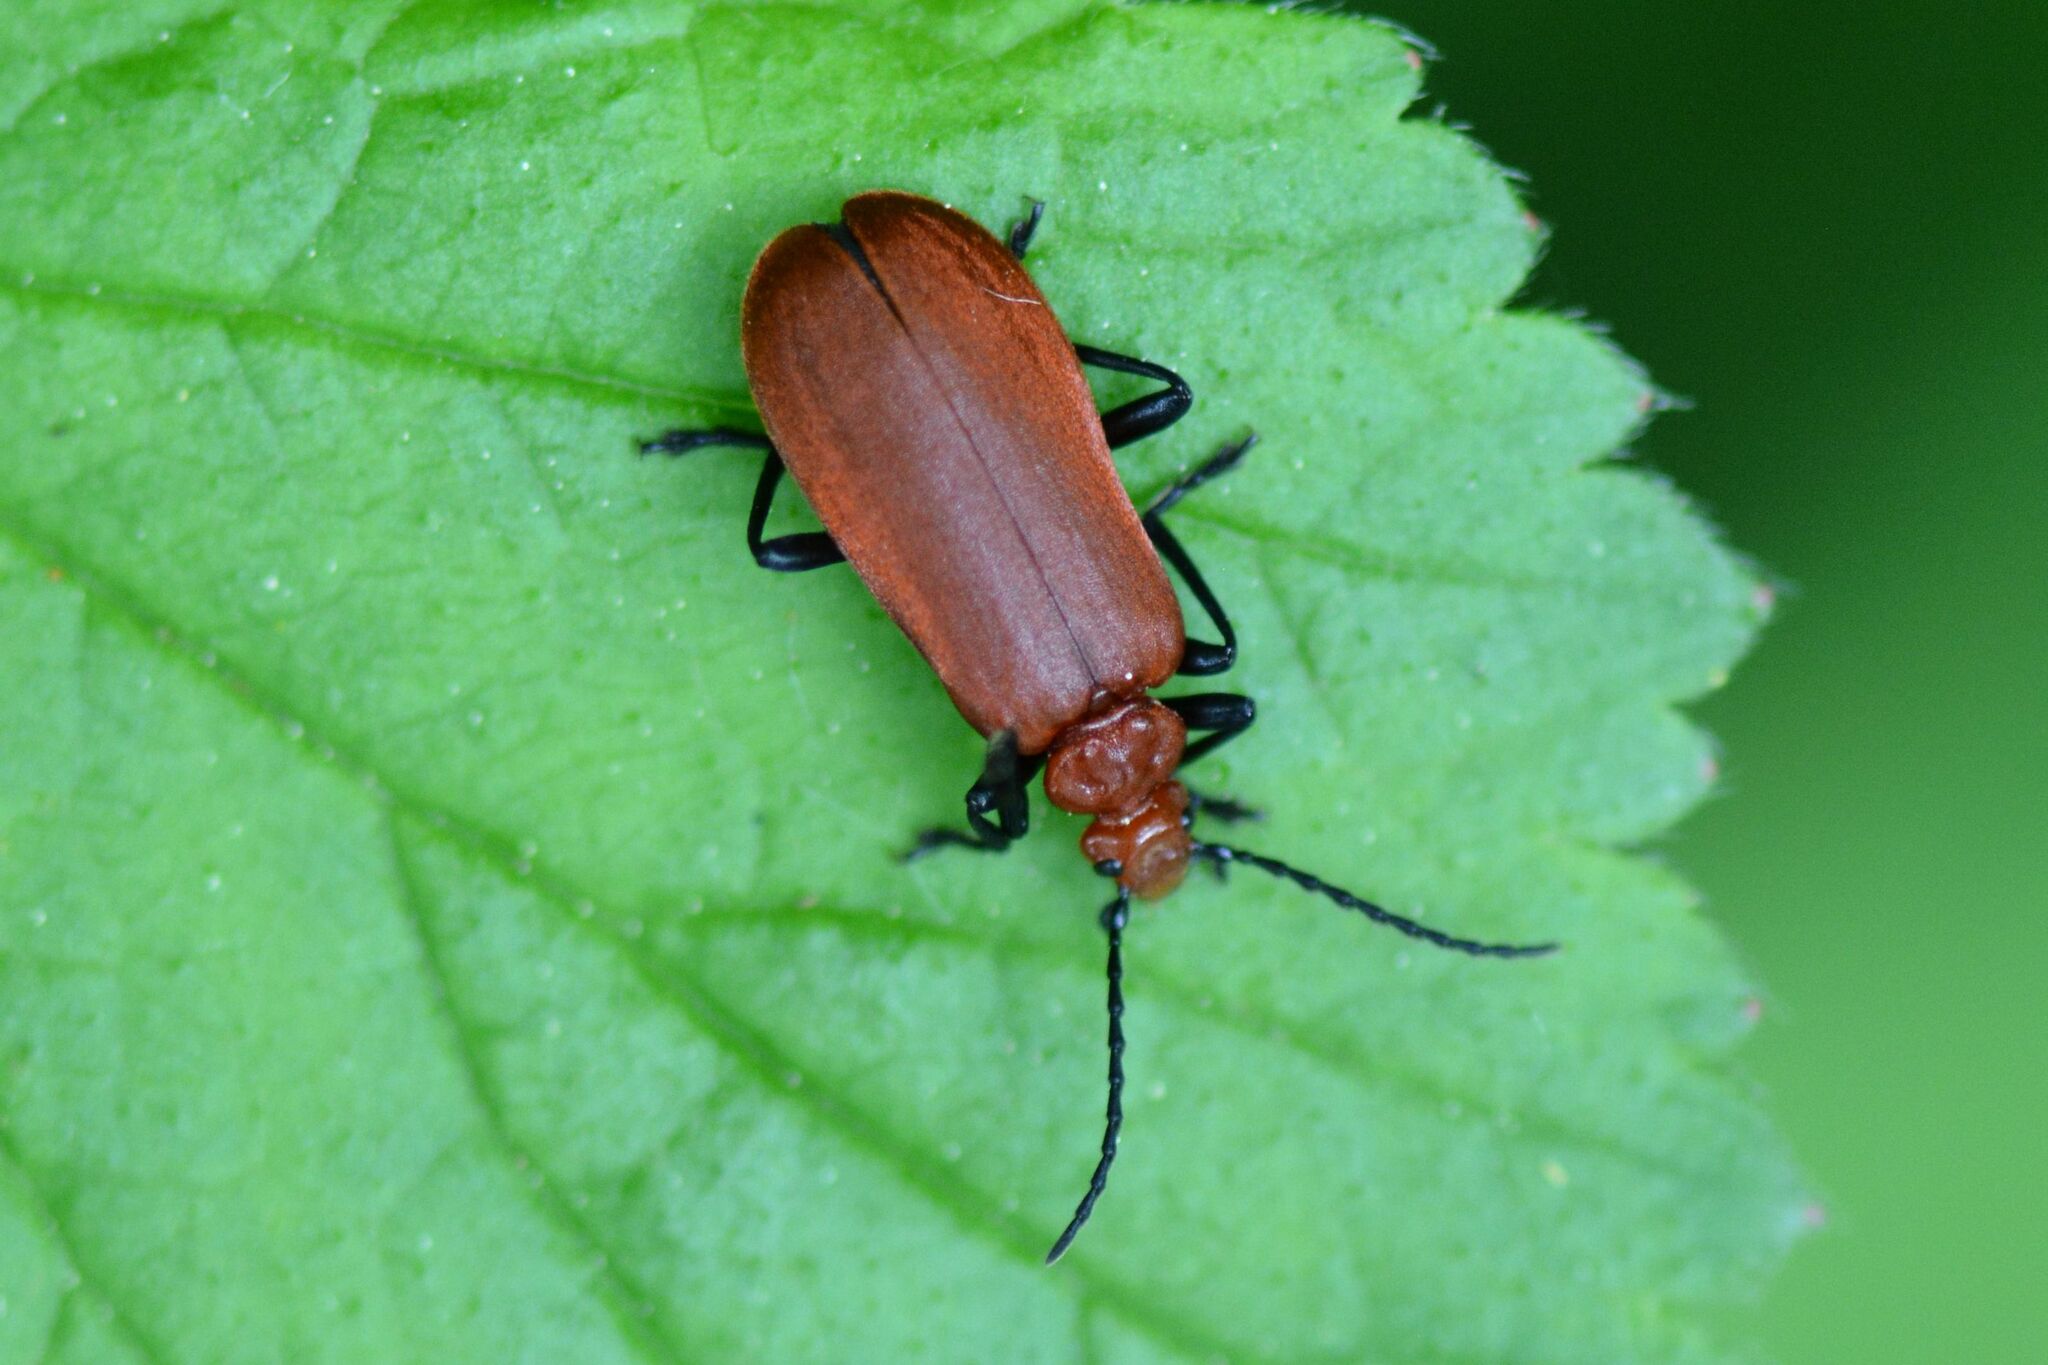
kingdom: Animalia
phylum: Arthropoda
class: Insecta
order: Coleoptera
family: Pyrochroidae
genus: Pyrochroa
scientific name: Pyrochroa serraticornis
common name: Red-headed cardinal beetle
